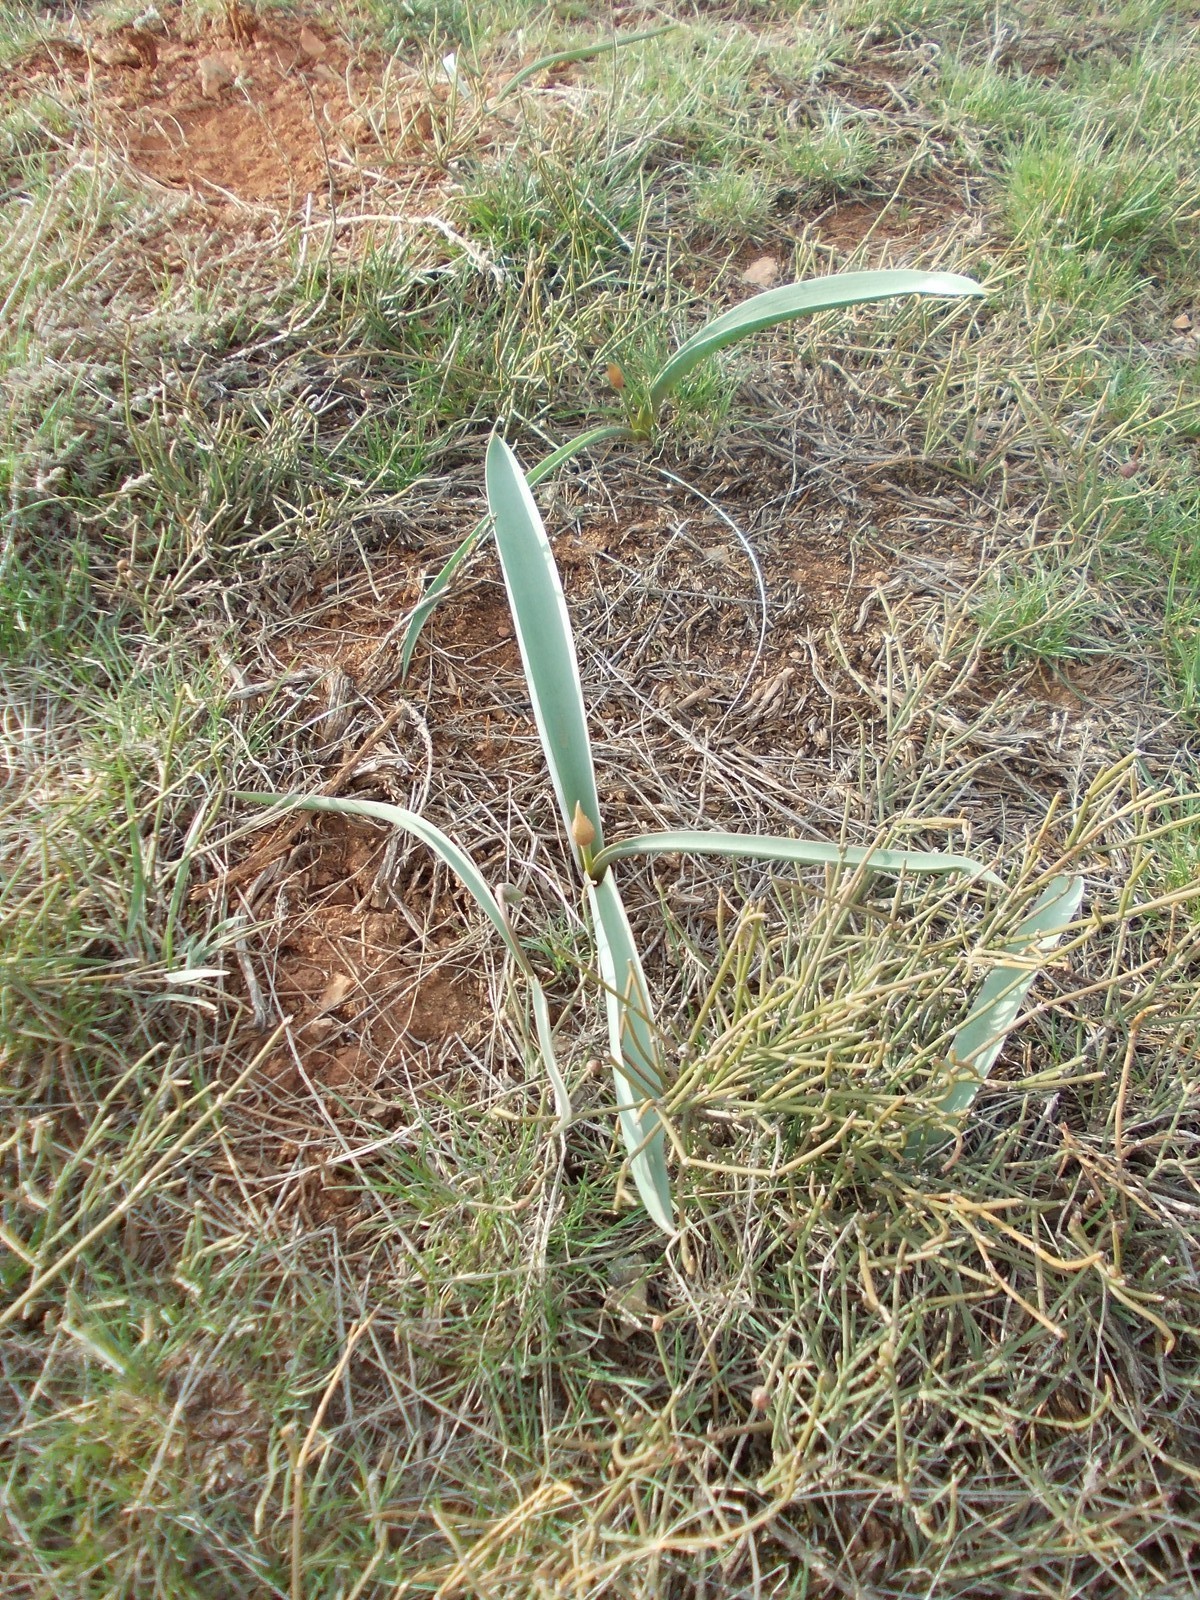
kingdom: Plantae
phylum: Tracheophyta
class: Liliopsida
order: Asparagales
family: Amaryllidaceae
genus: Allium
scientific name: Allium tulipifolium
